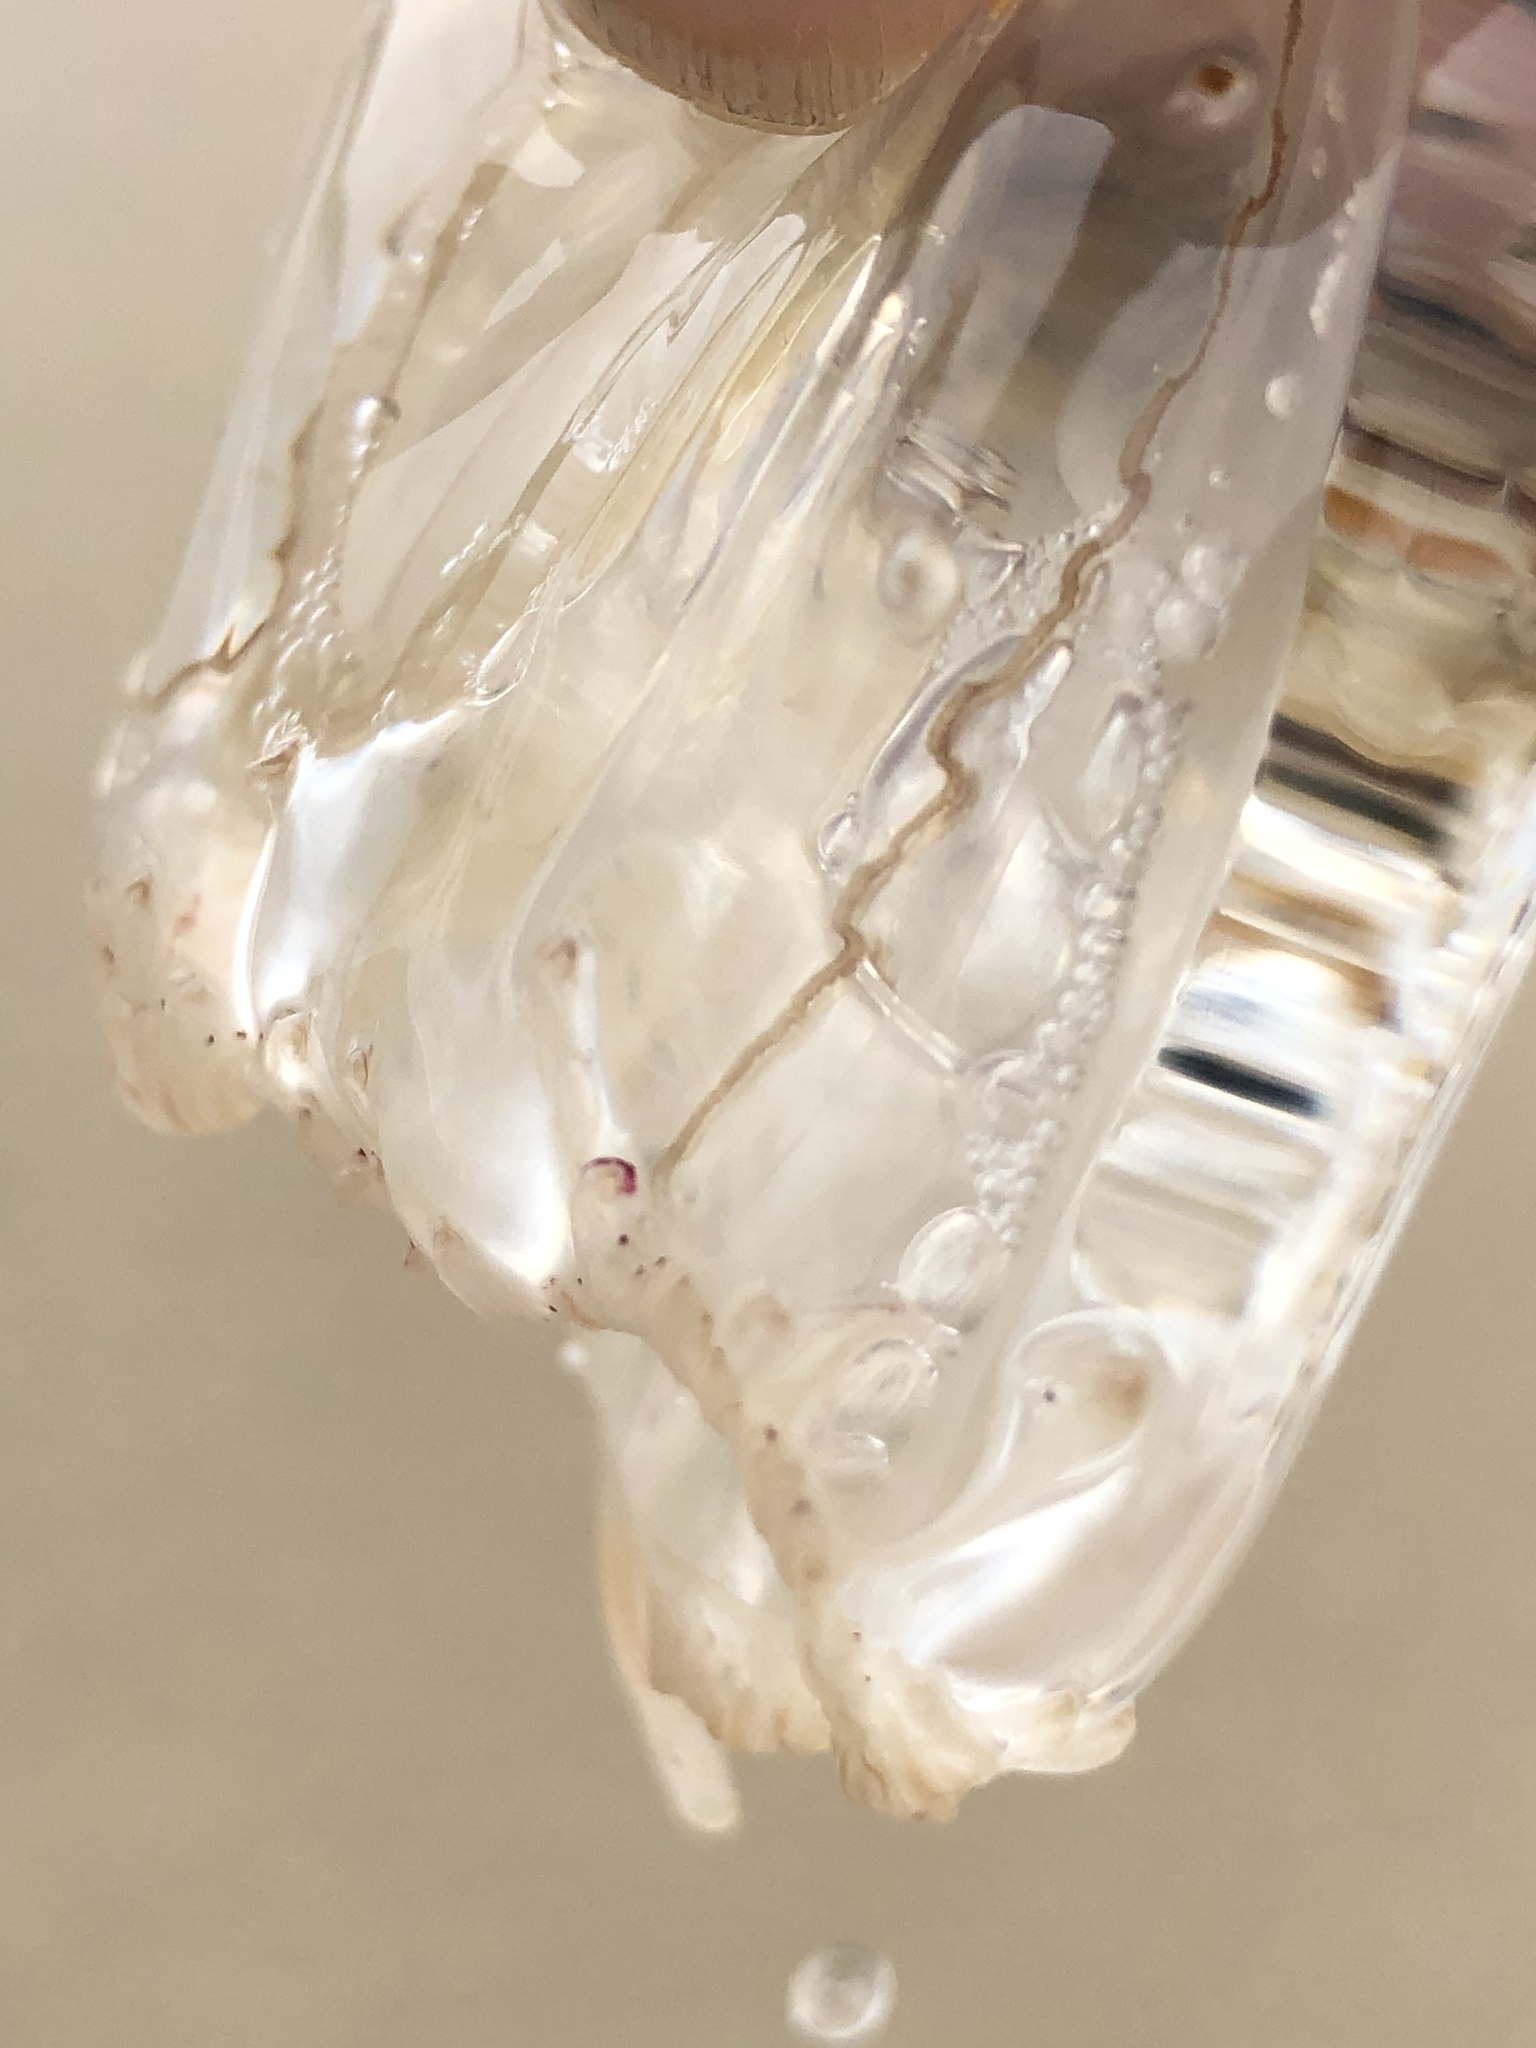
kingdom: Animalia
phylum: Cnidaria
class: Hydrozoa
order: Anthoathecata
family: Corynidae
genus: Scrippsia
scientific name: Scrippsia pacifica
